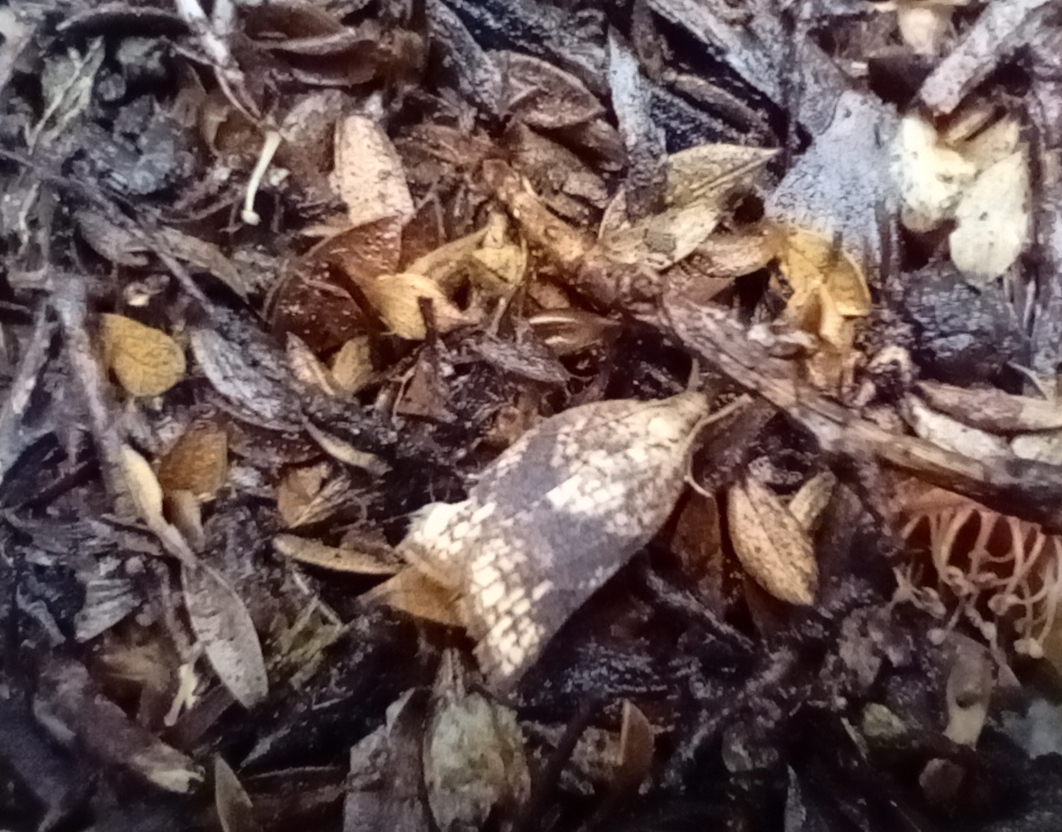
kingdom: Animalia
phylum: Arthropoda
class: Insecta
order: Lepidoptera
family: Tortricidae
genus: Catamacta
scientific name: Catamacta gavisana
